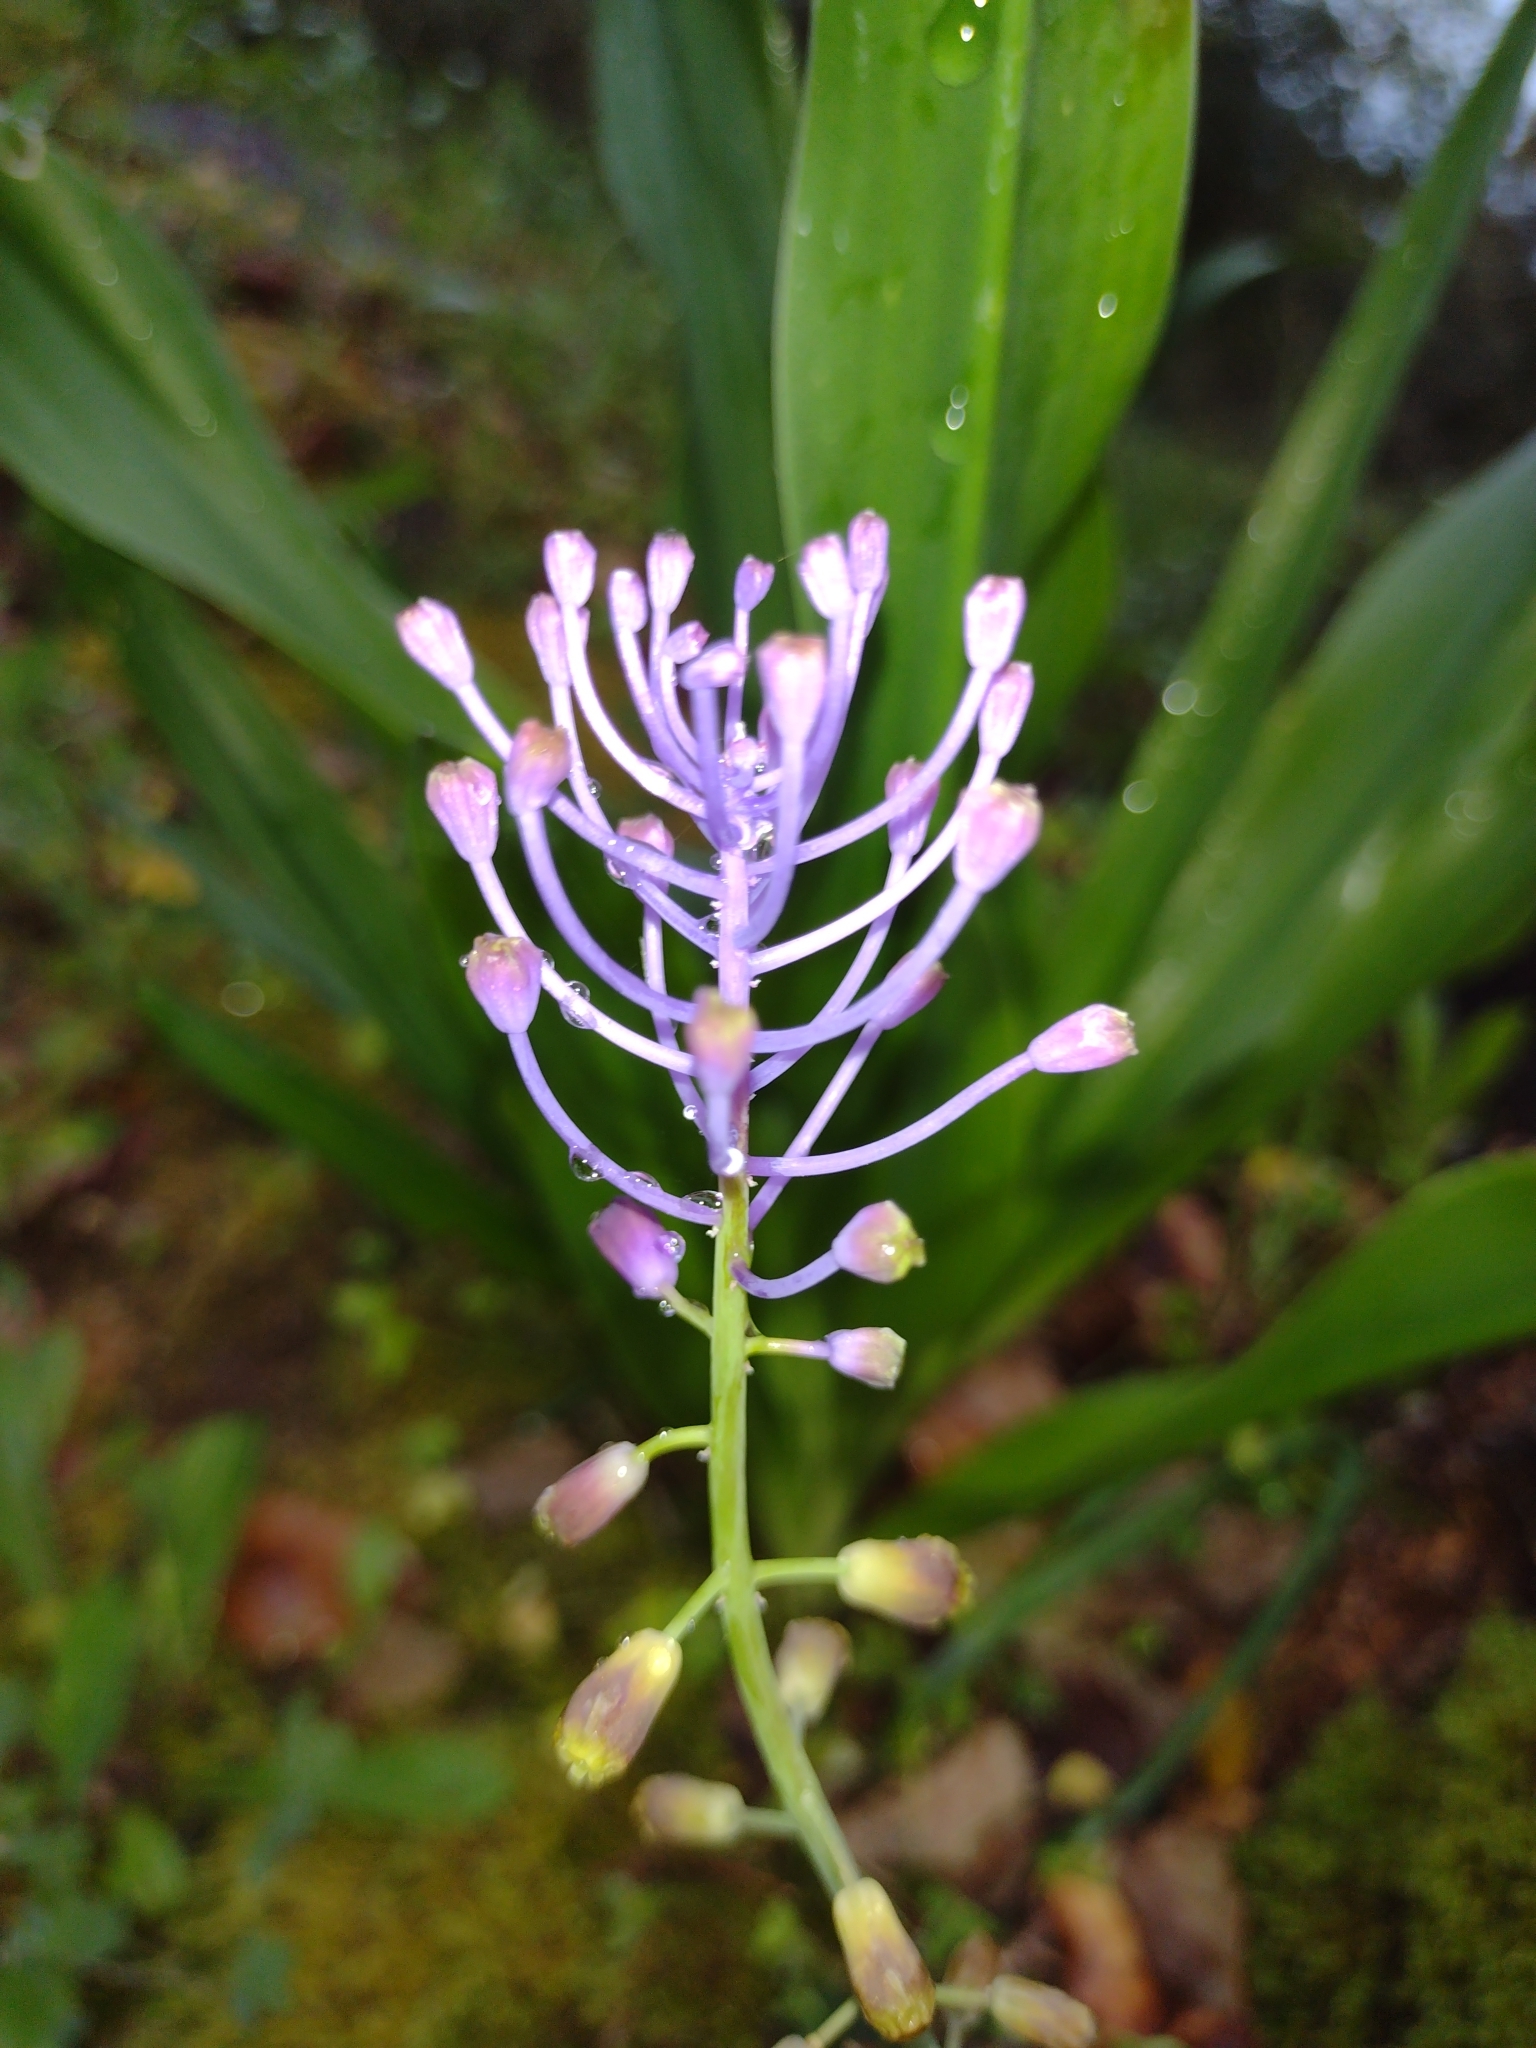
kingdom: Plantae
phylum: Tracheophyta
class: Liliopsida
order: Asparagales
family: Asparagaceae
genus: Muscari
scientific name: Muscari comosum
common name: Tassel hyacinth
